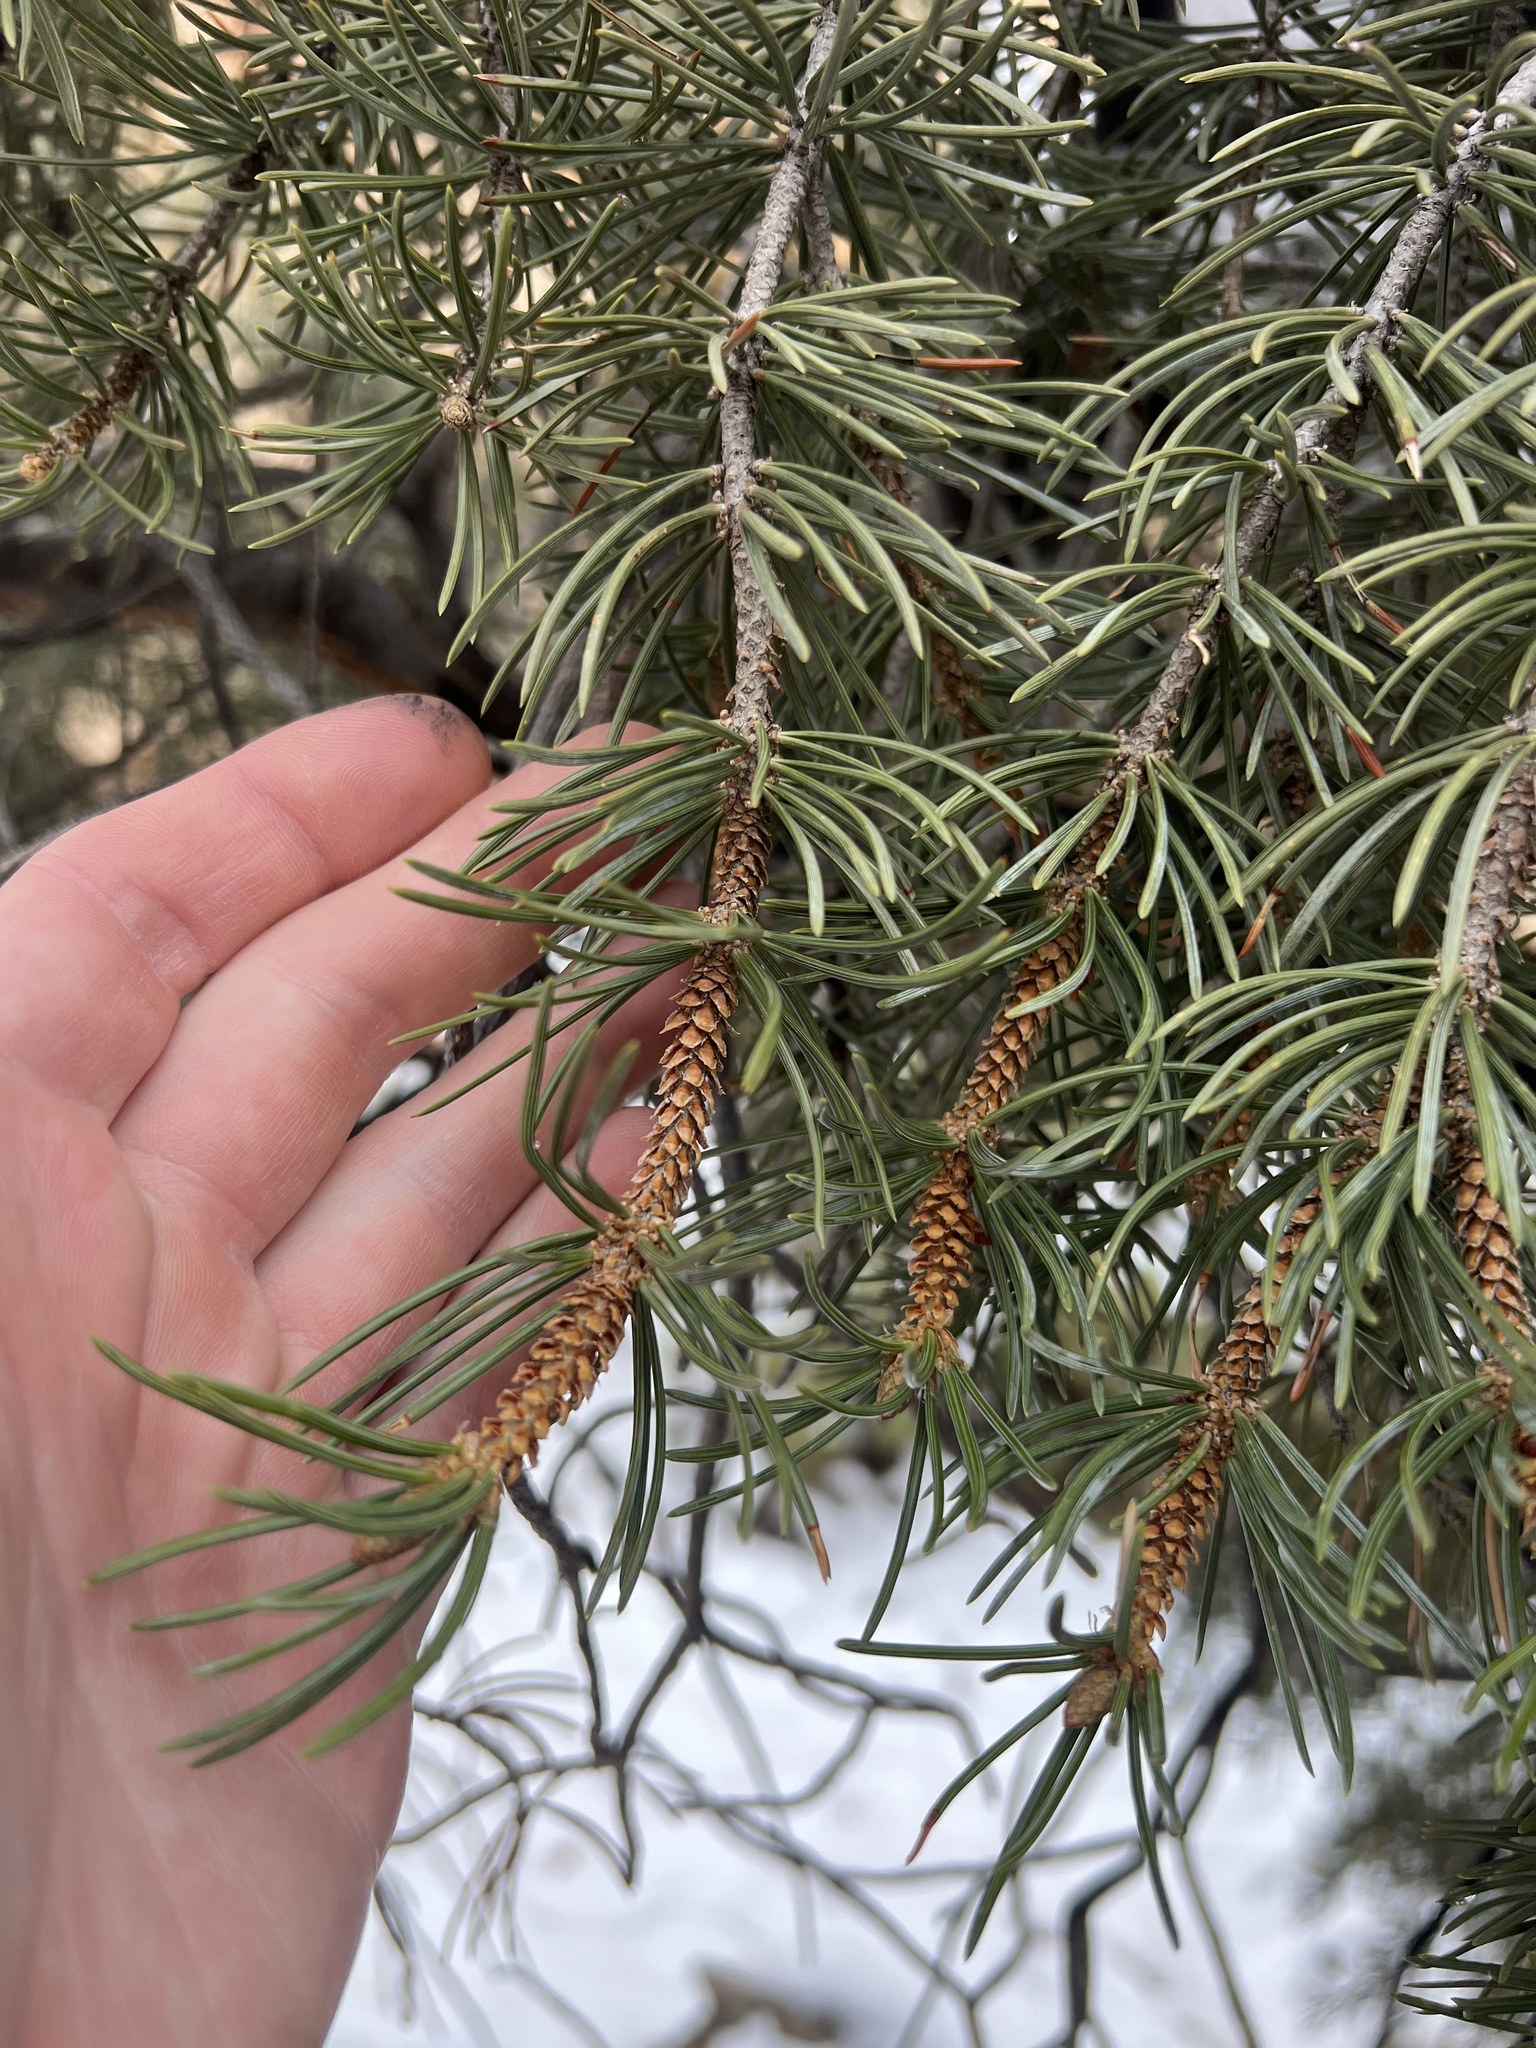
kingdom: Plantae
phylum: Tracheophyta
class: Pinopsida
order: Pinales
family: Pinaceae
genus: Pinus
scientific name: Pinus edulis
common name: Colorado pinyon
